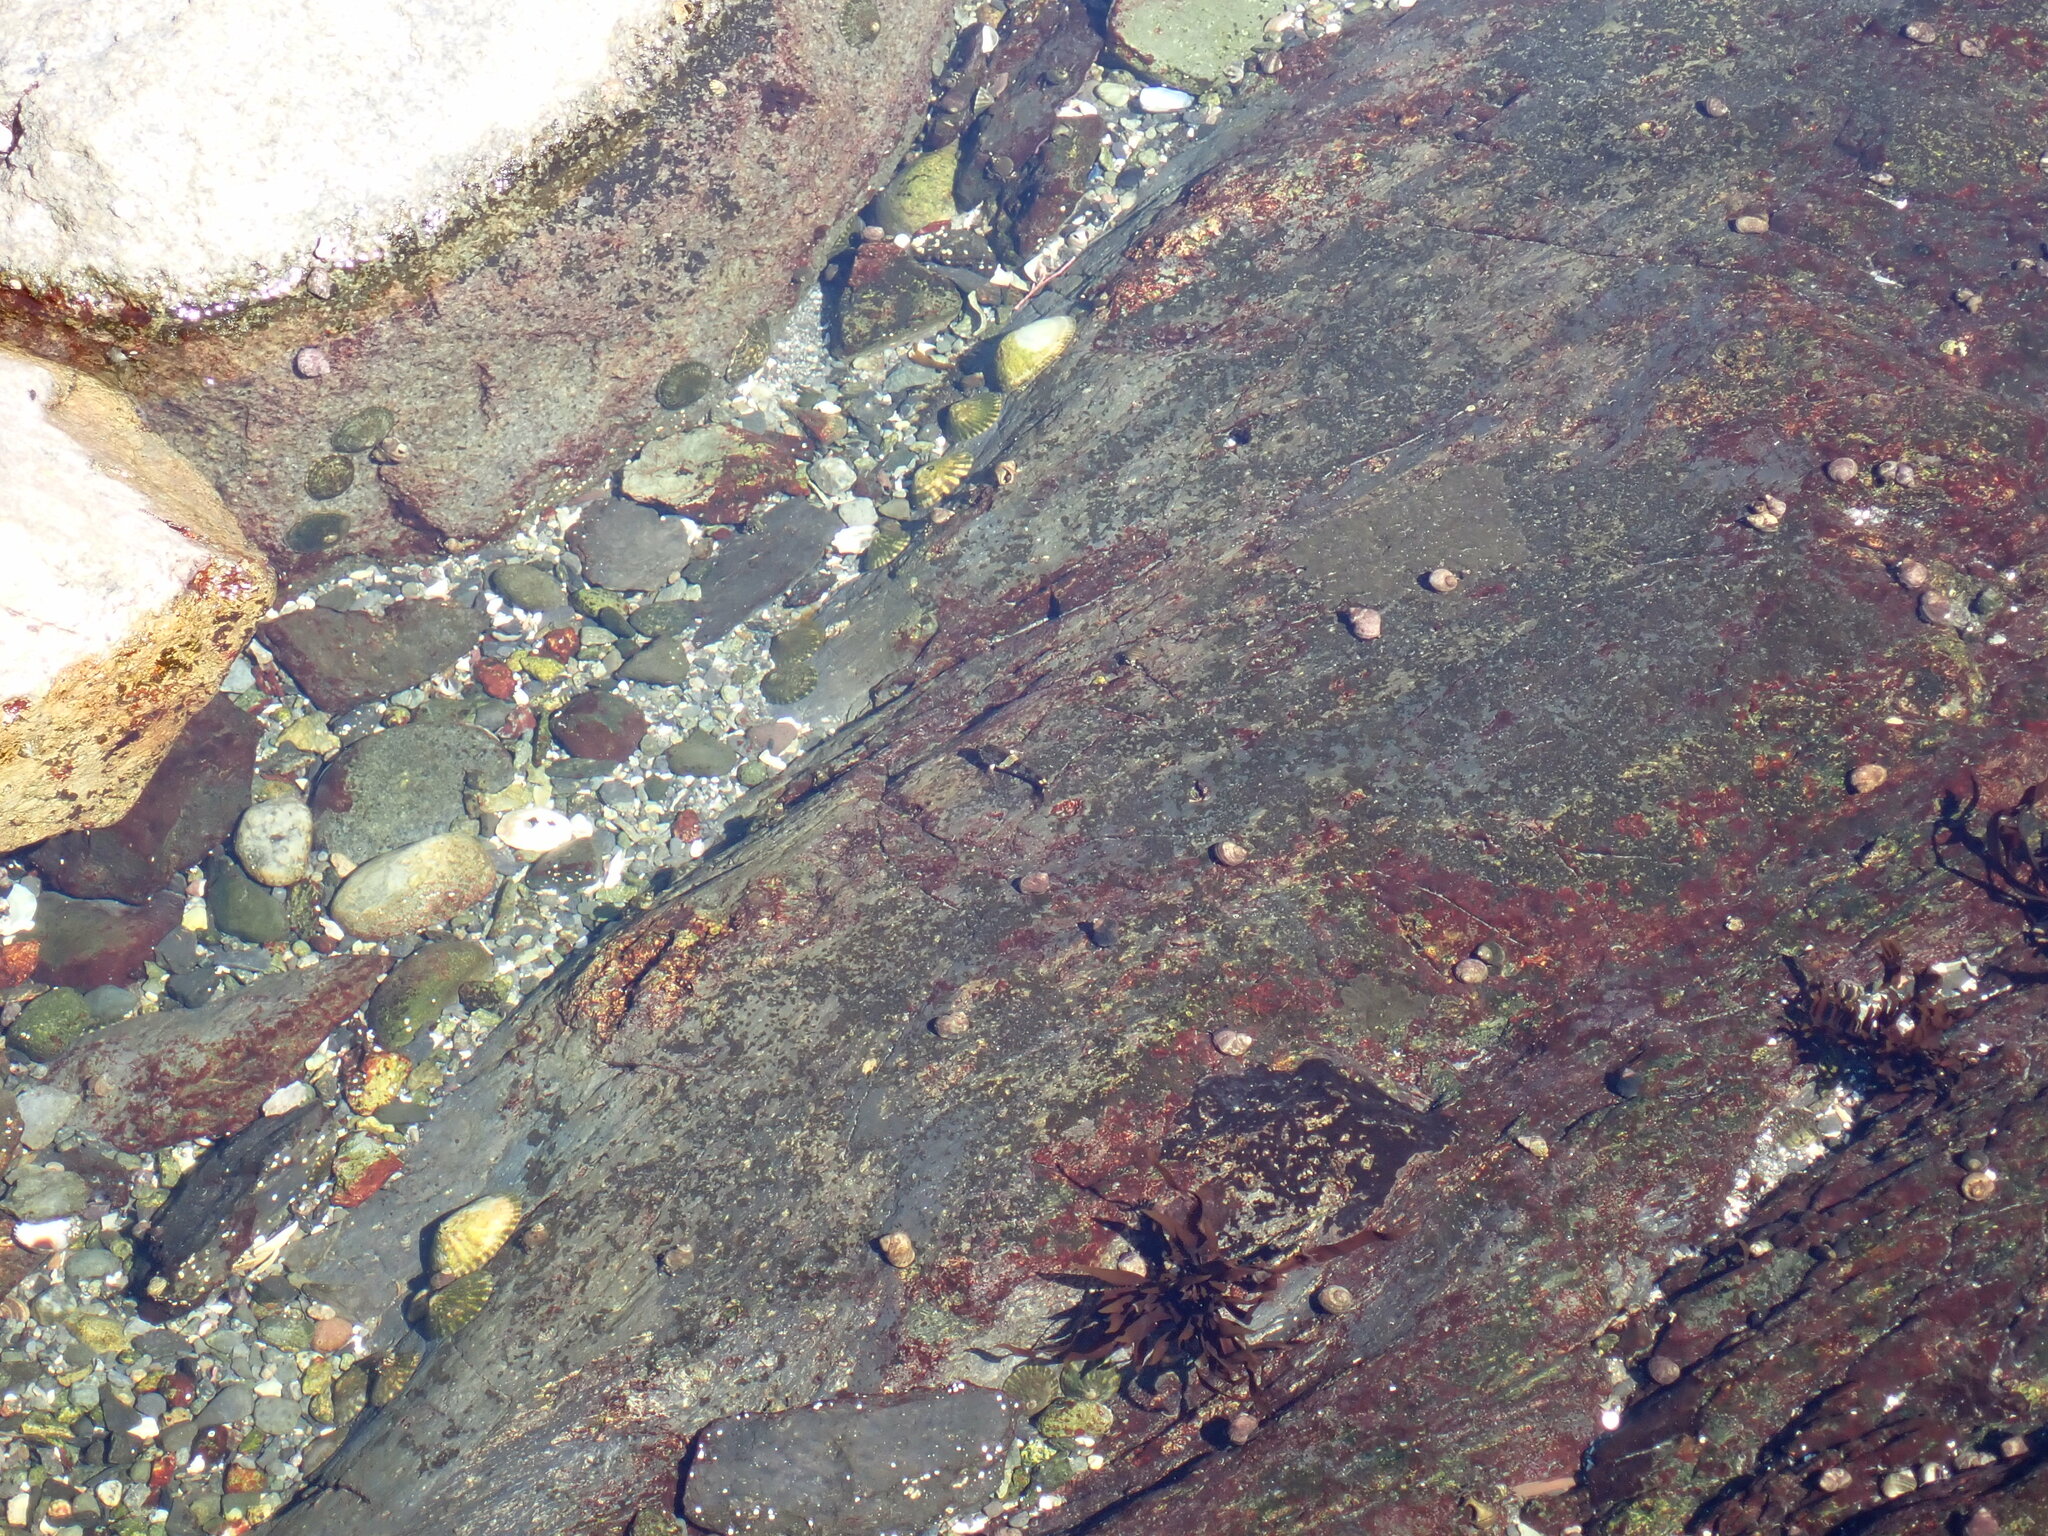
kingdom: Animalia
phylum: Chordata
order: Scorpaeniformes
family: Cottidae
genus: Oligocottus
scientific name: Oligocottus maculosus
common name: Tidepool sculpin
